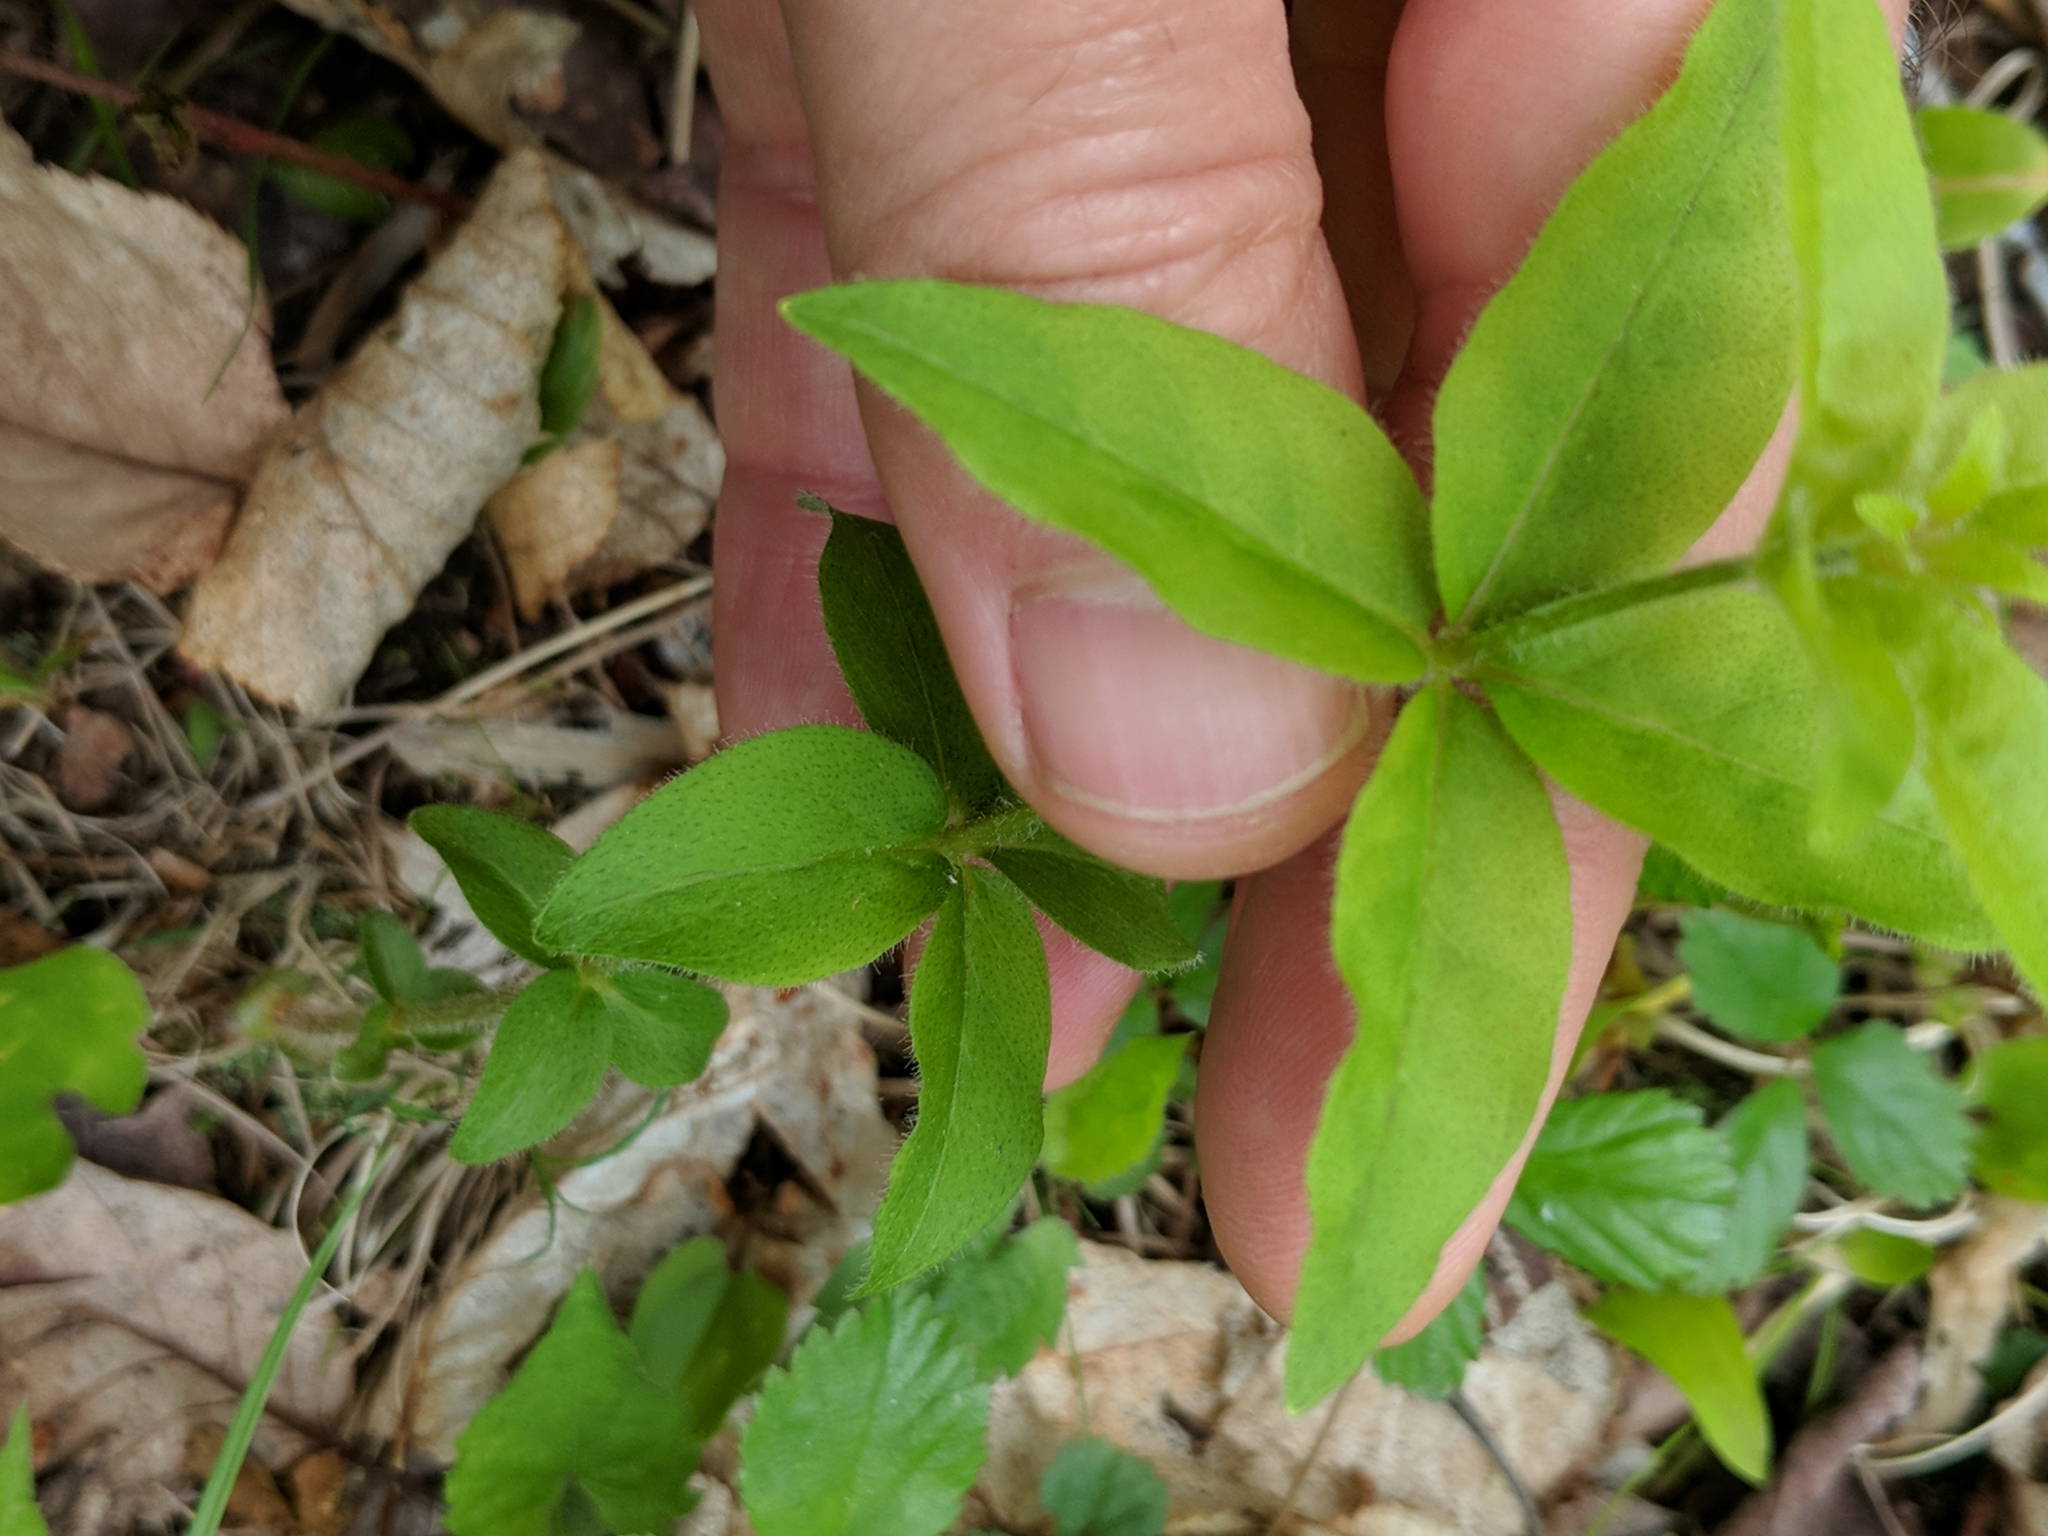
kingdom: Plantae
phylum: Tracheophyta
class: Magnoliopsida
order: Ericales
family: Primulaceae
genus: Lysimachia
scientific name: Lysimachia quadrifolia
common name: Whorled loosestrife
